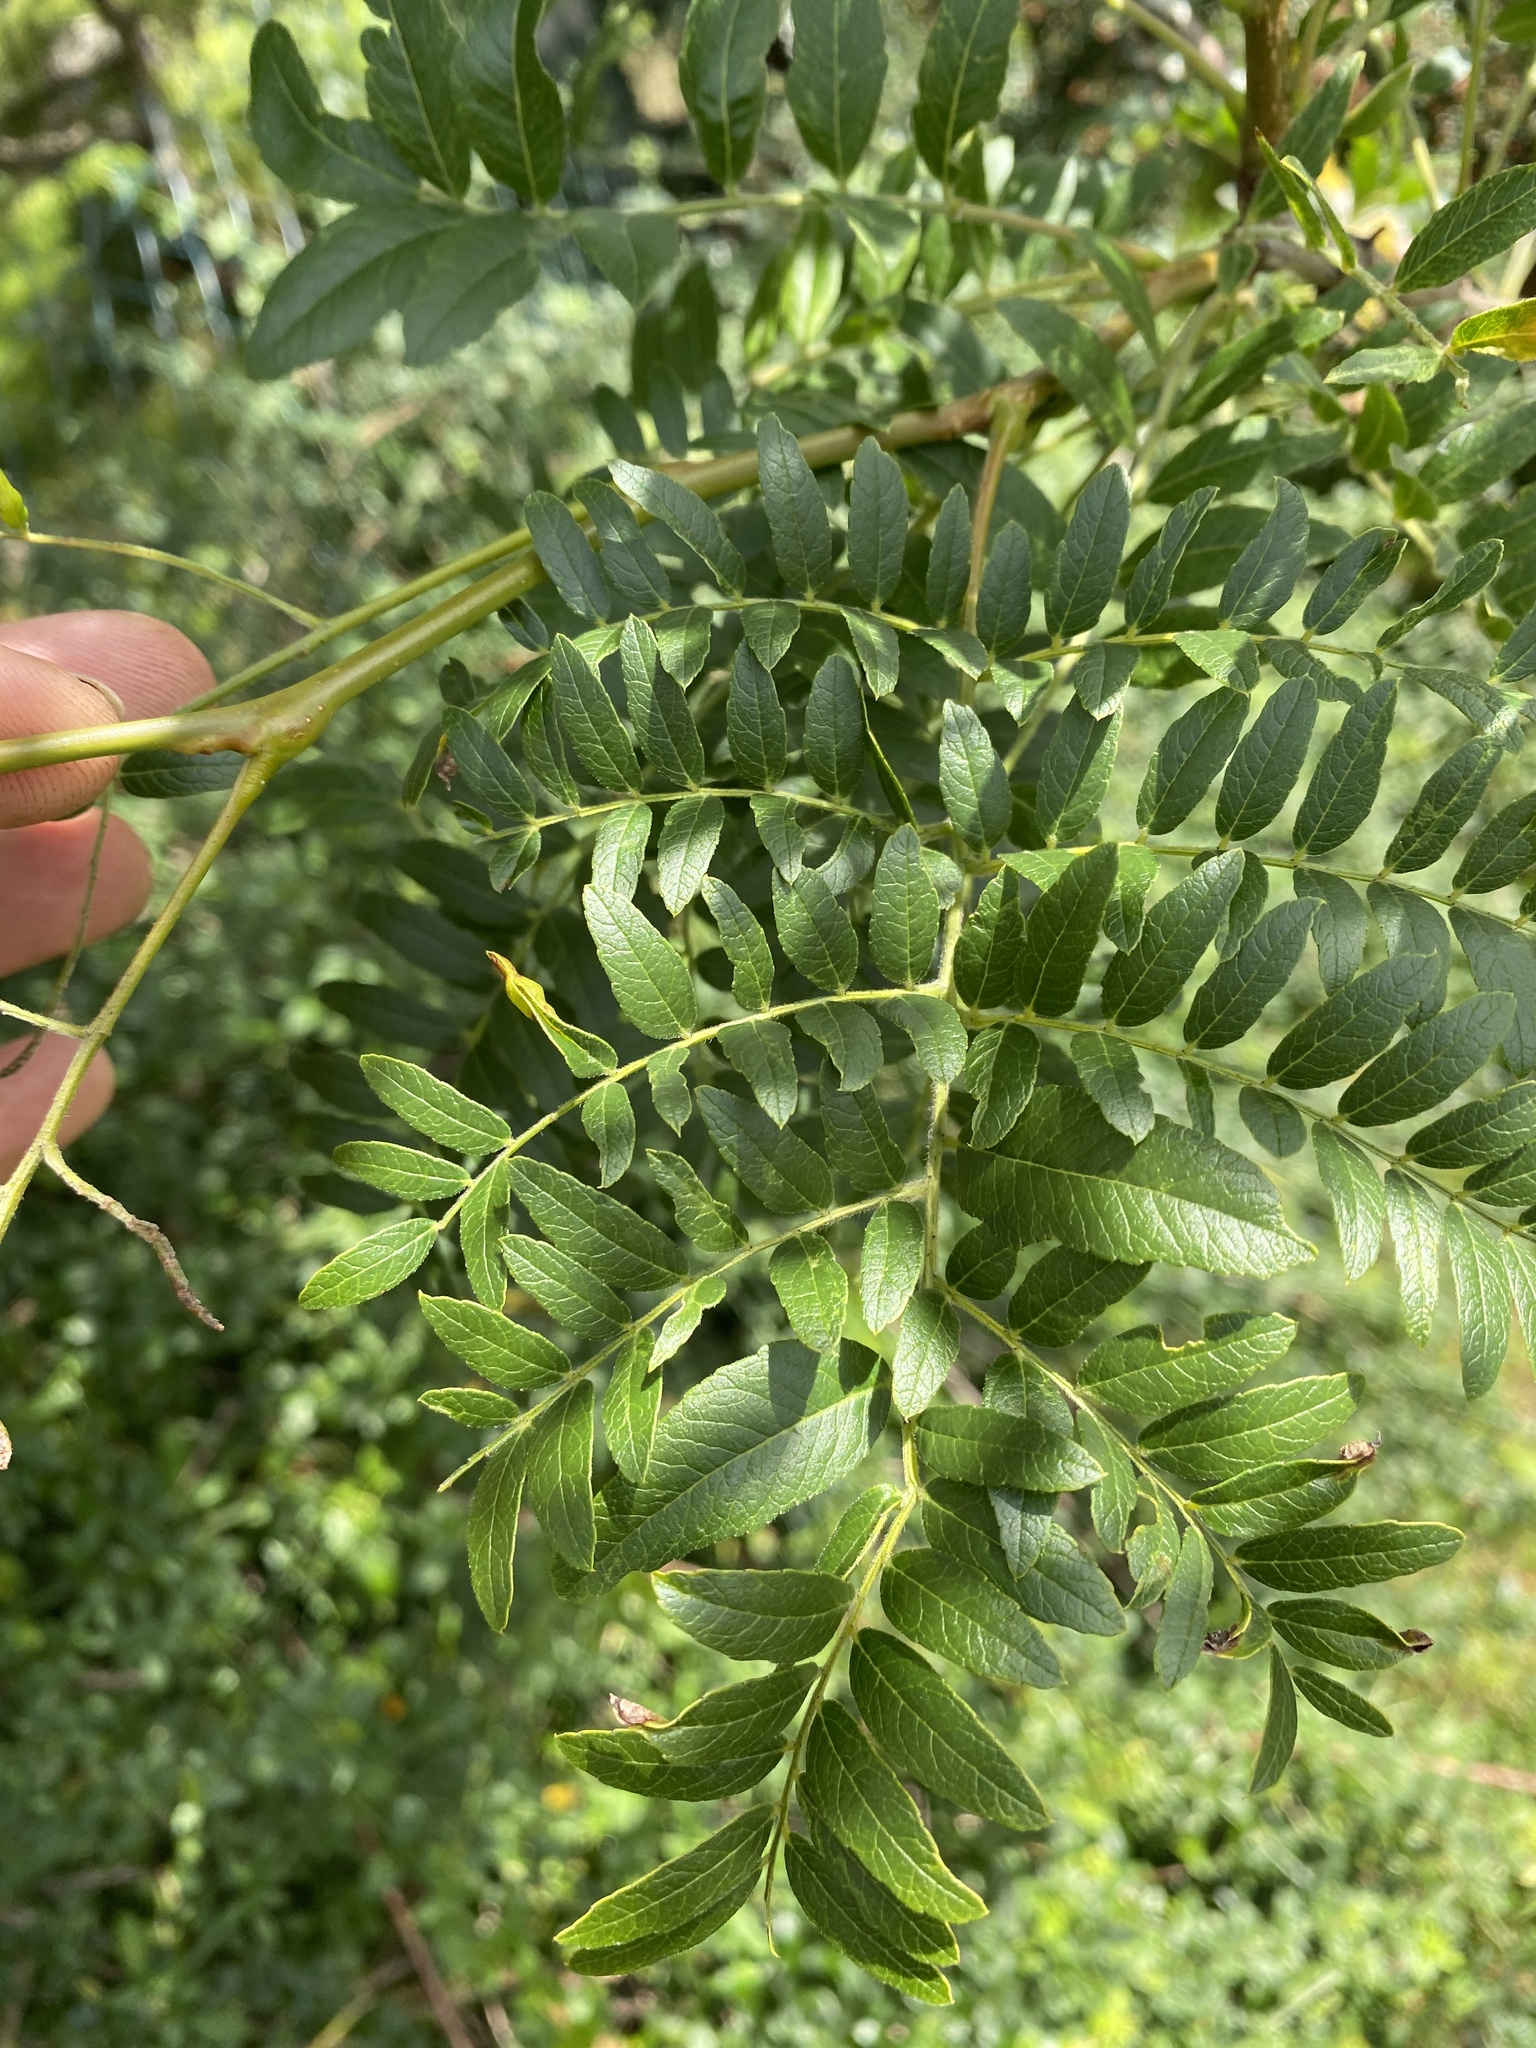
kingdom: Plantae
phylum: Tracheophyta
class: Magnoliopsida
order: Fabales
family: Fabaceae
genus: Gleditsia
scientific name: Gleditsia triacanthos
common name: Common honeylocust
